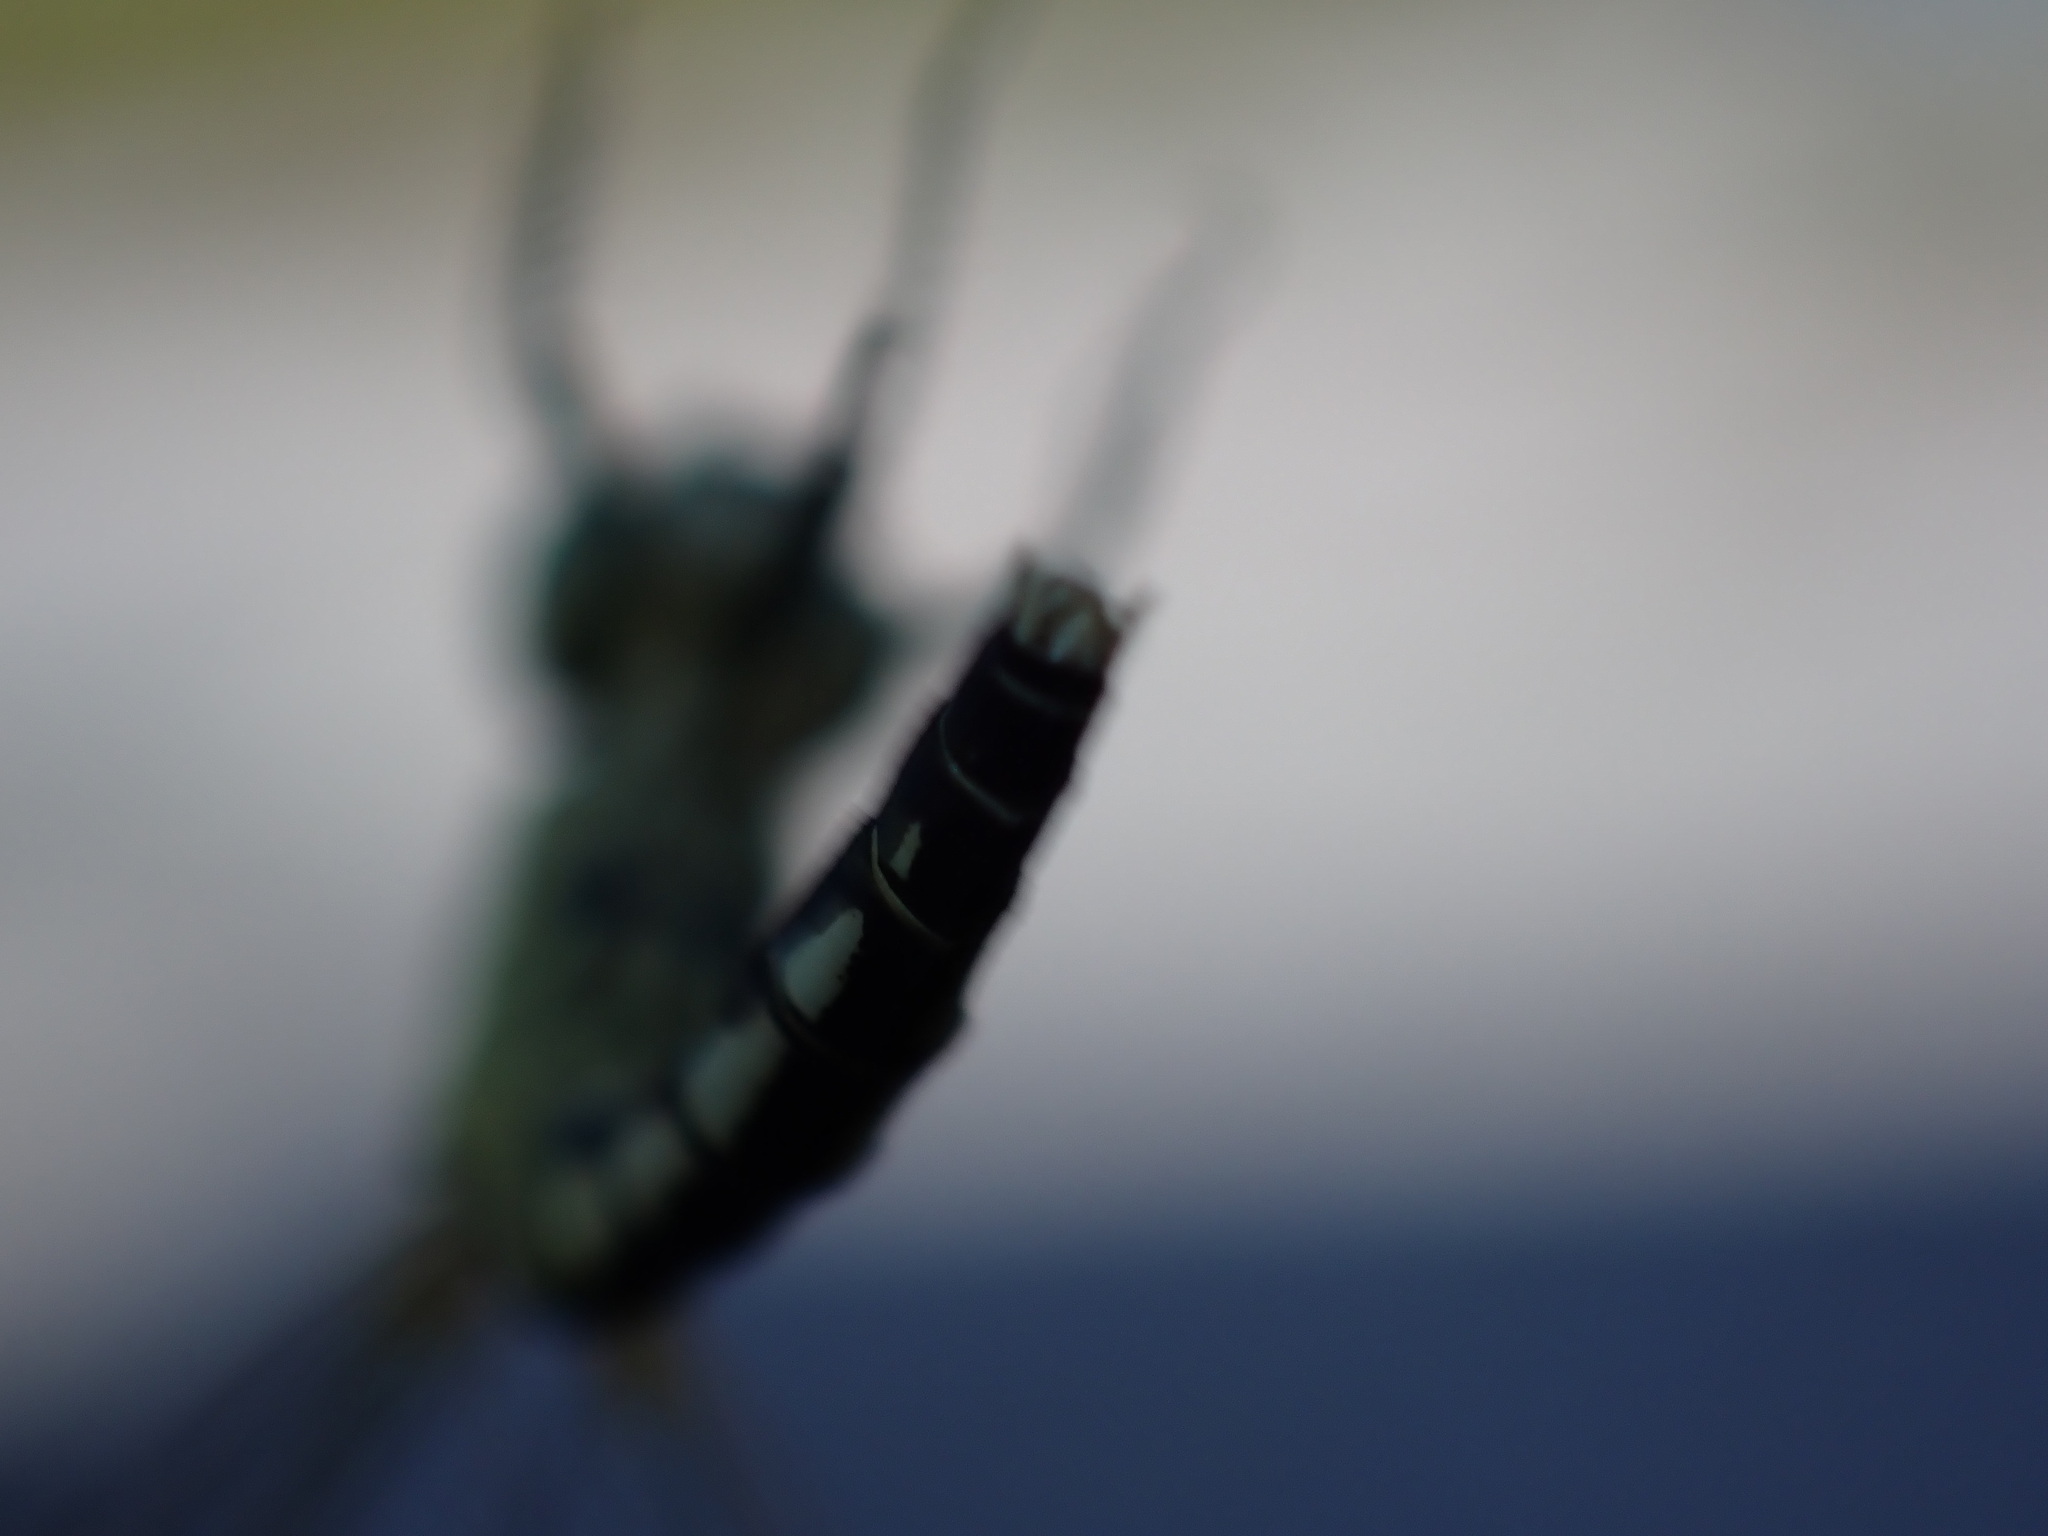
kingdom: Animalia
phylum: Arthropoda
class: Insecta
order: Odonata
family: Libellulidae
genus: Diplacodes
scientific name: Diplacodes nebulosa
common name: Black-tipped percher
